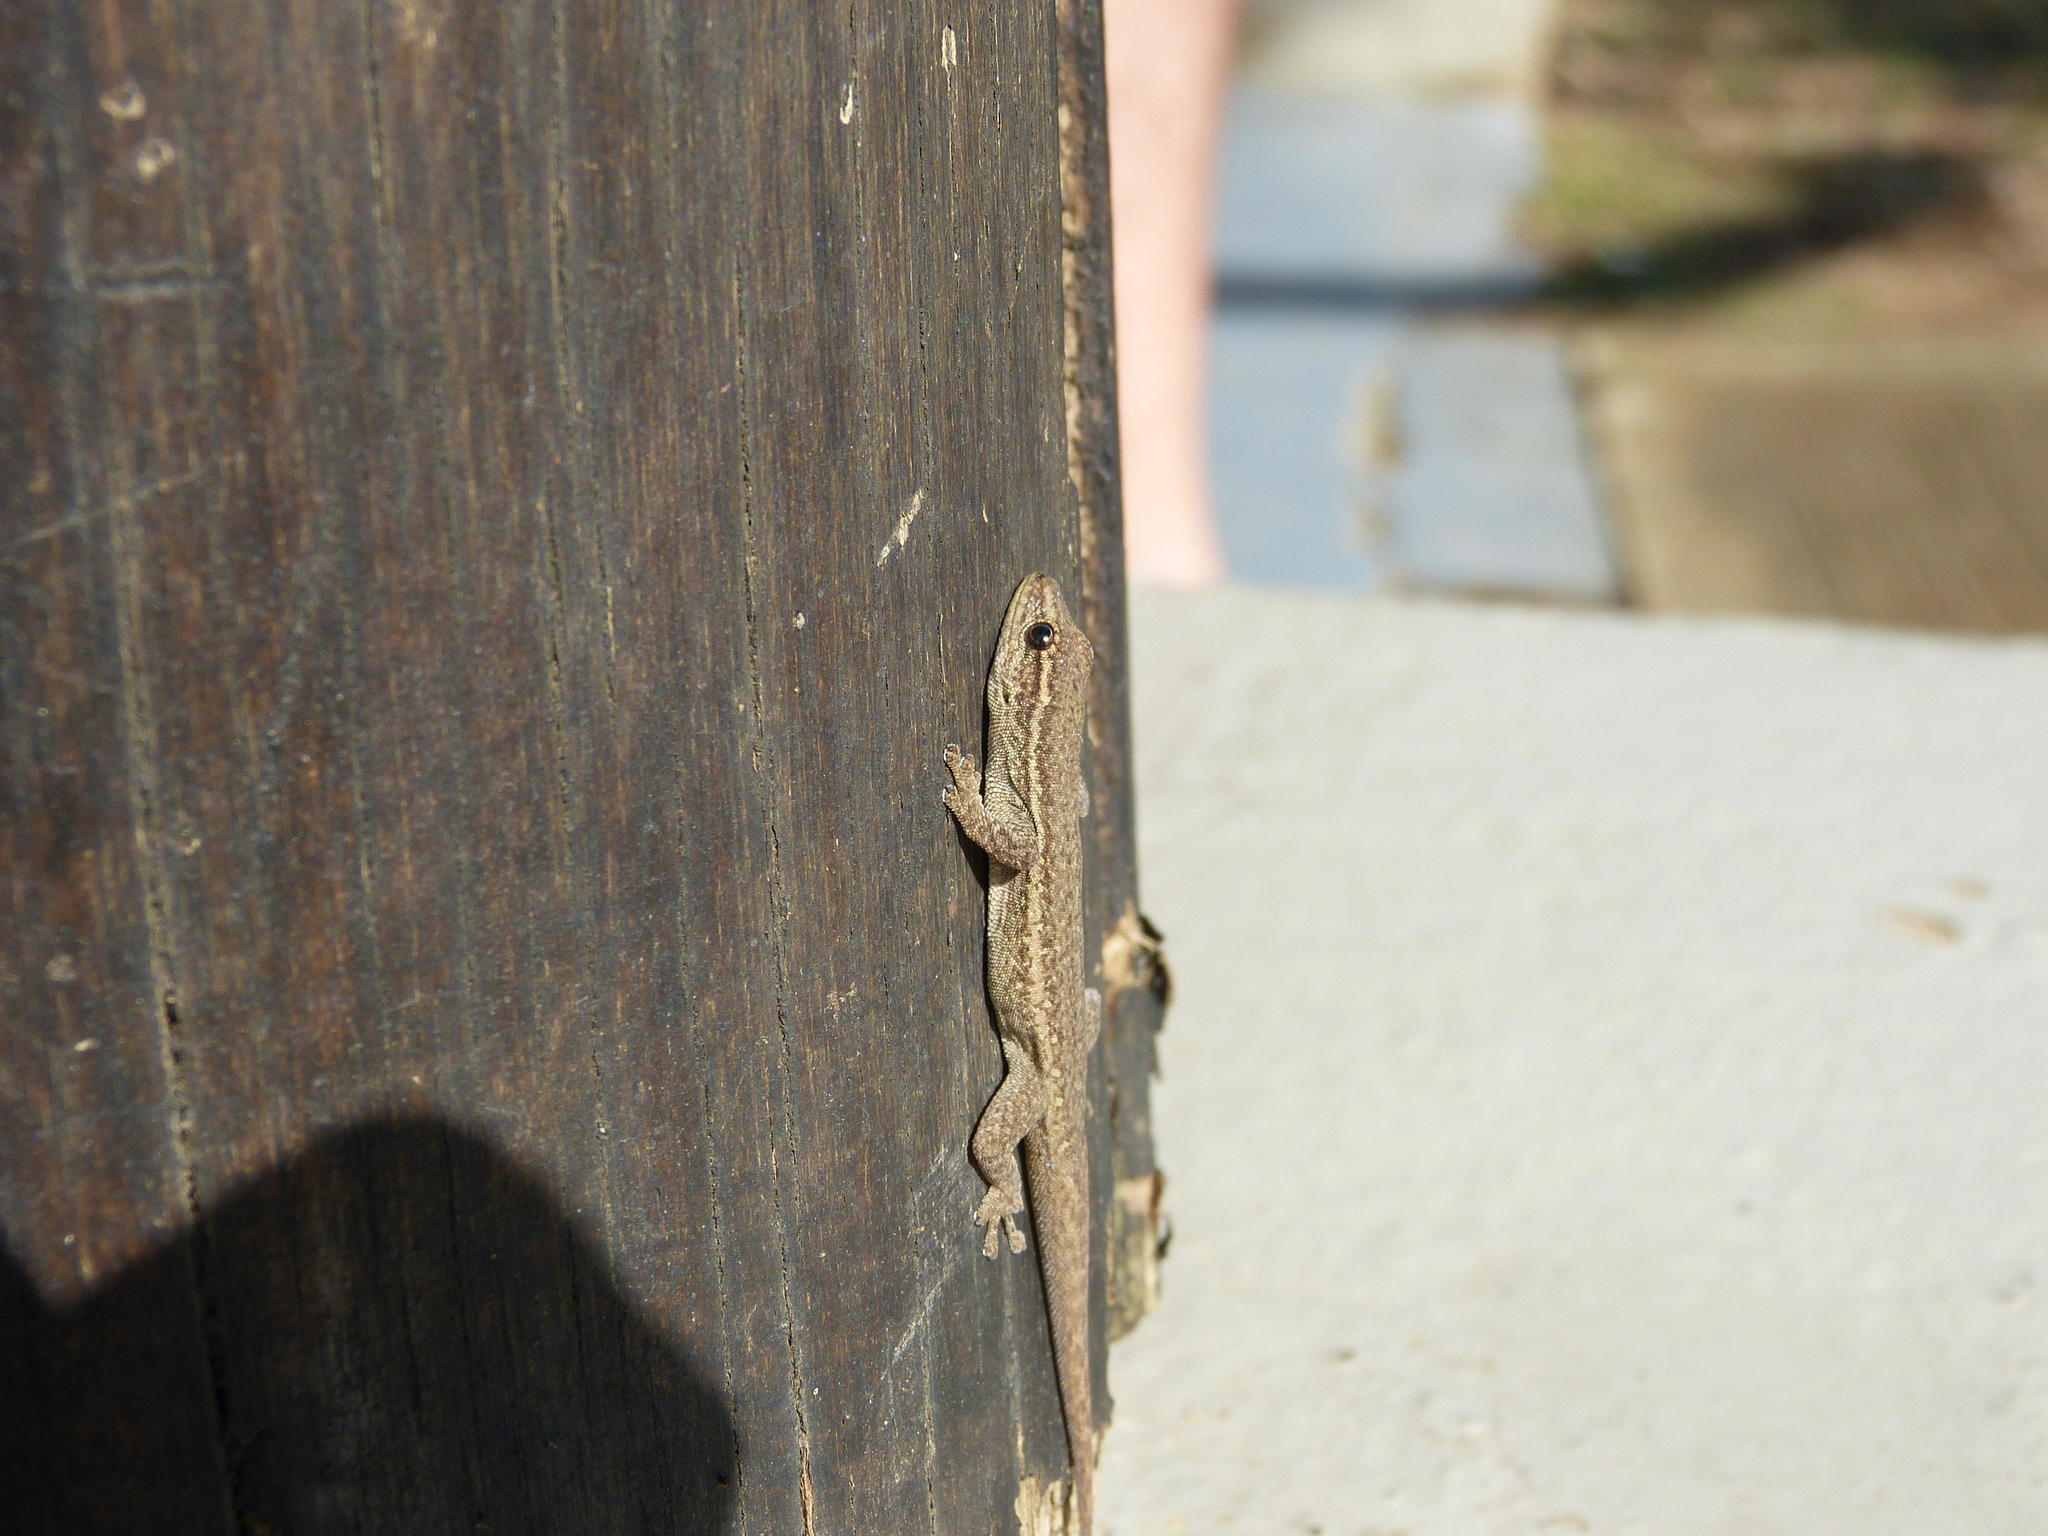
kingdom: Animalia
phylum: Chordata
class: Squamata
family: Gekkonidae
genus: Lygodactylus
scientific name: Lygodactylus capensis
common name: Cape dwarf gecko
